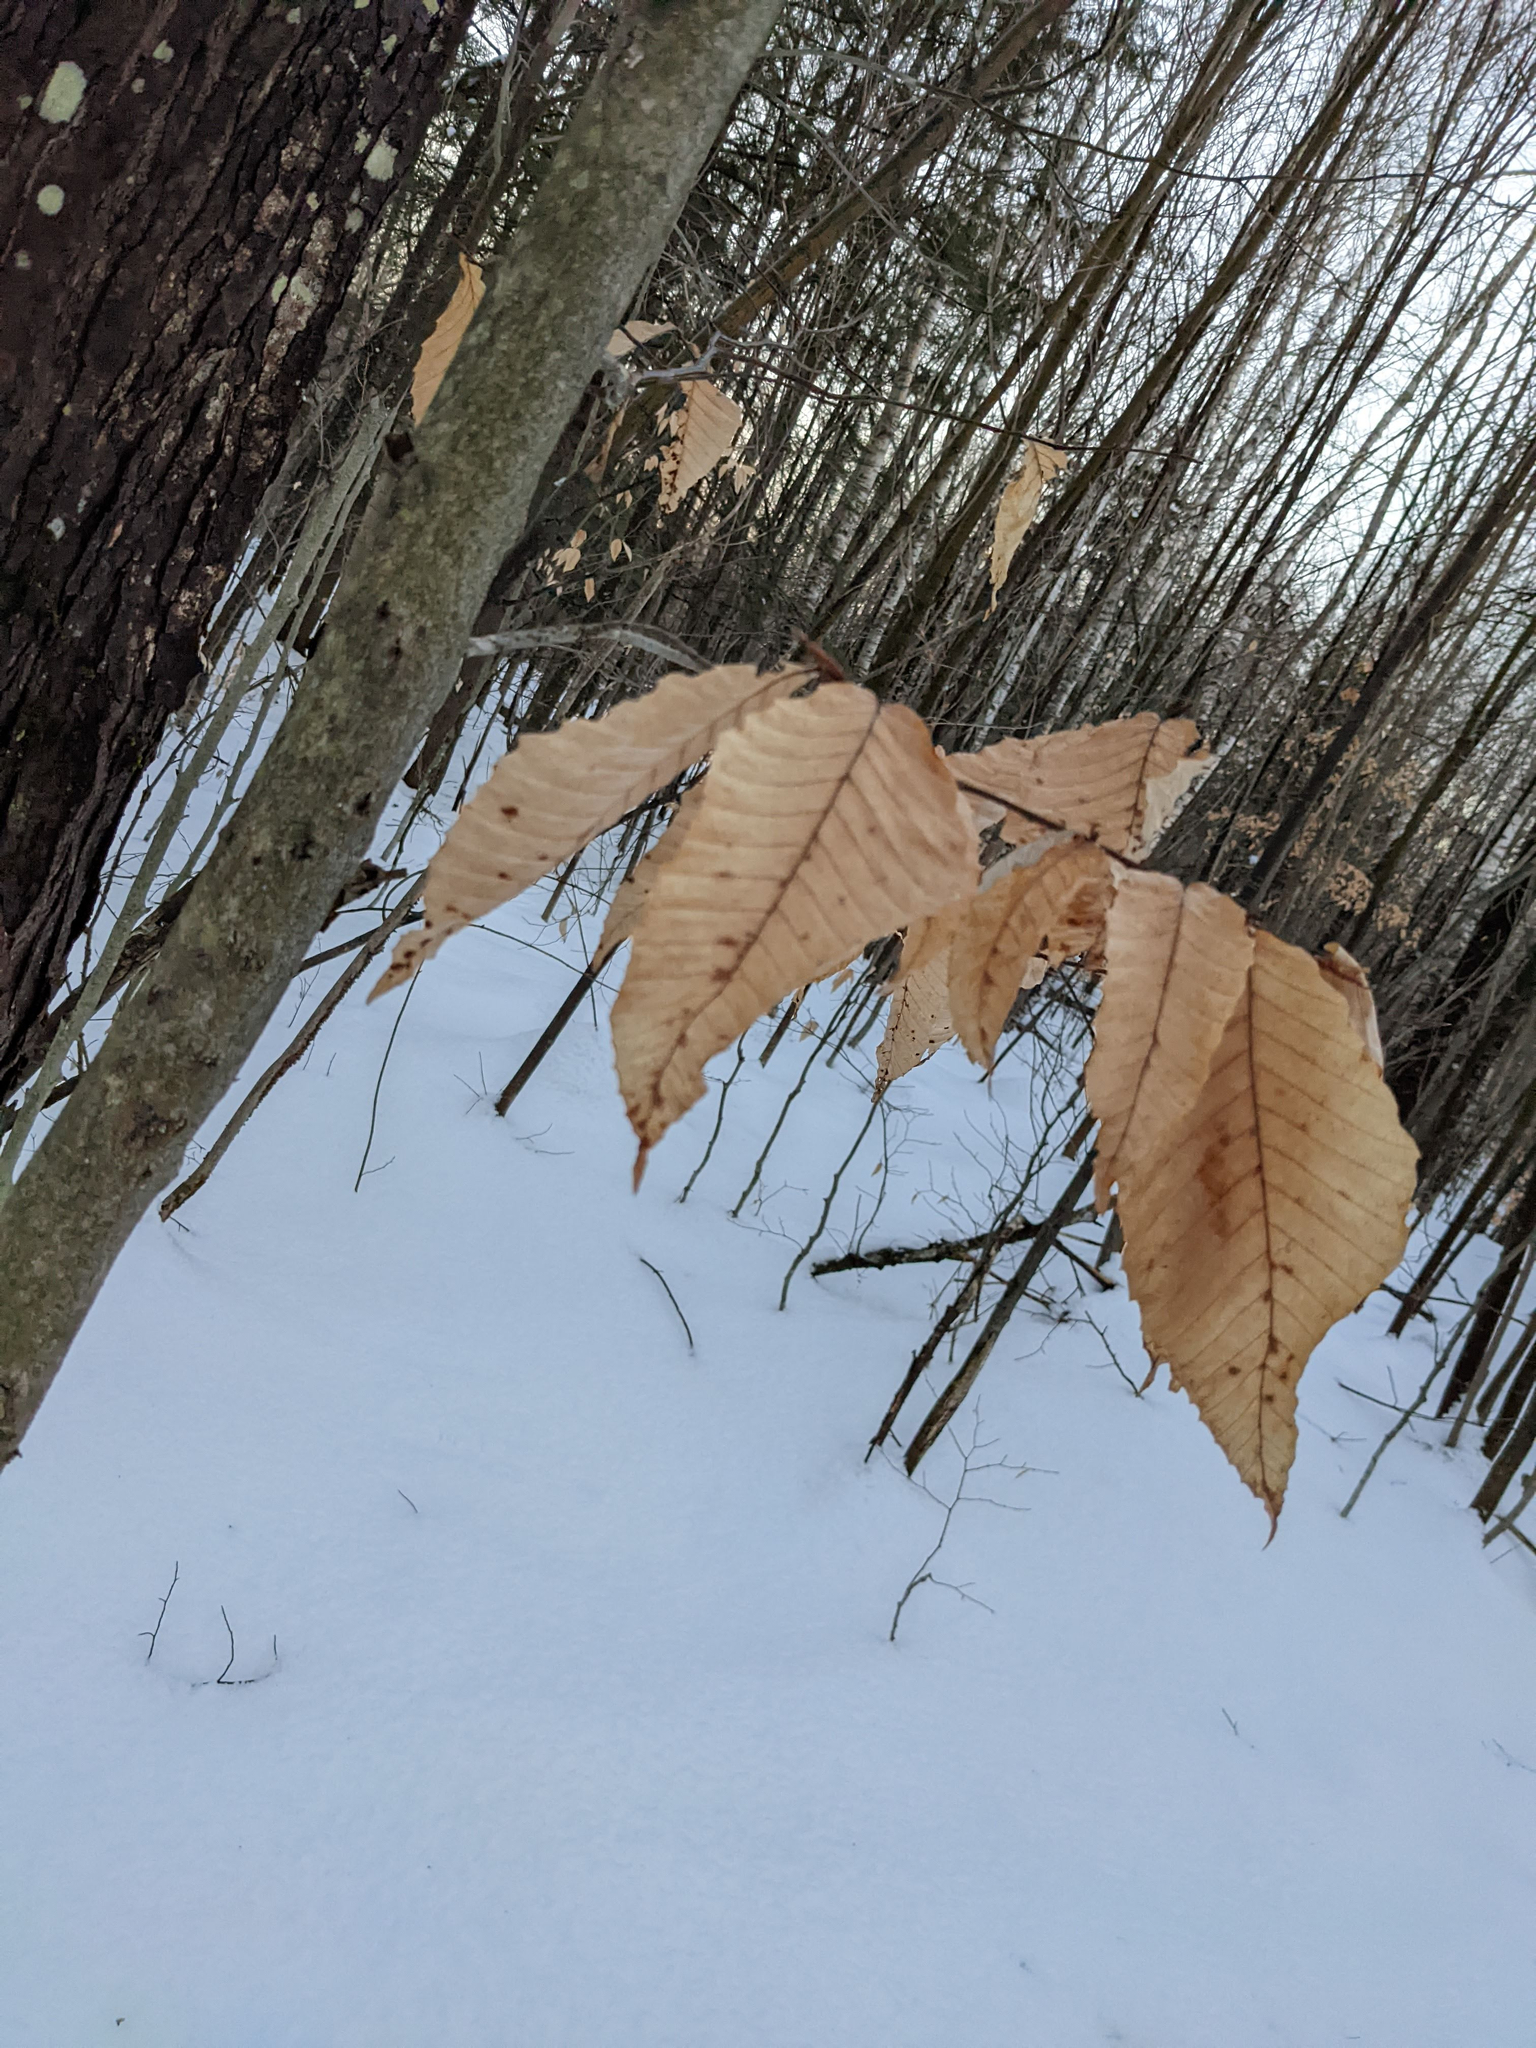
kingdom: Plantae
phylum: Tracheophyta
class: Magnoliopsida
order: Fagales
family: Fagaceae
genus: Fagus
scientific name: Fagus grandifolia
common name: American beech
